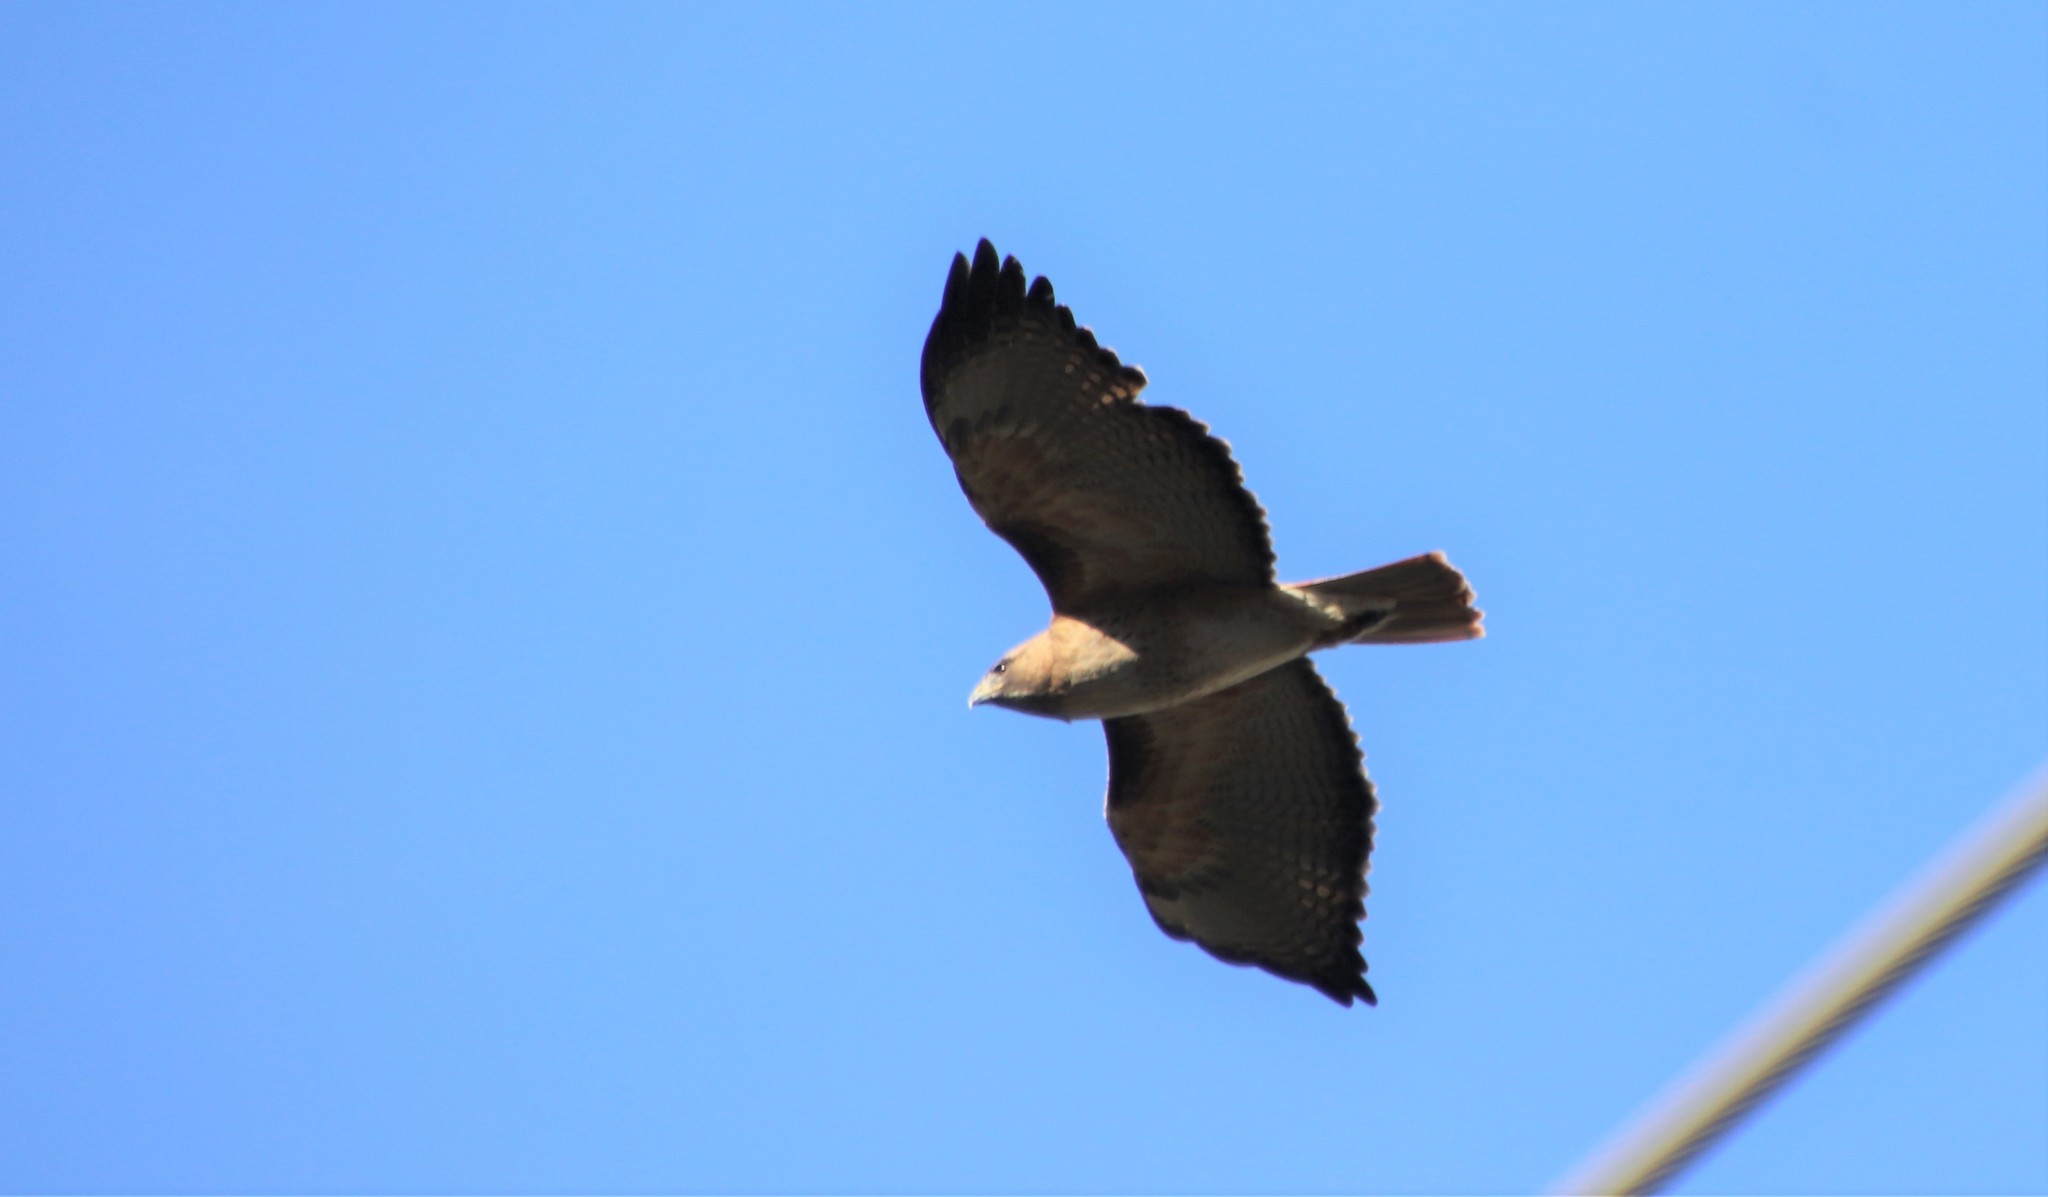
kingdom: Animalia
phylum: Chordata
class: Aves
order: Accipitriformes
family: Accipitridae
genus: Buteo
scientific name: Buteo jamaicensis
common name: Red-tailed hawk
